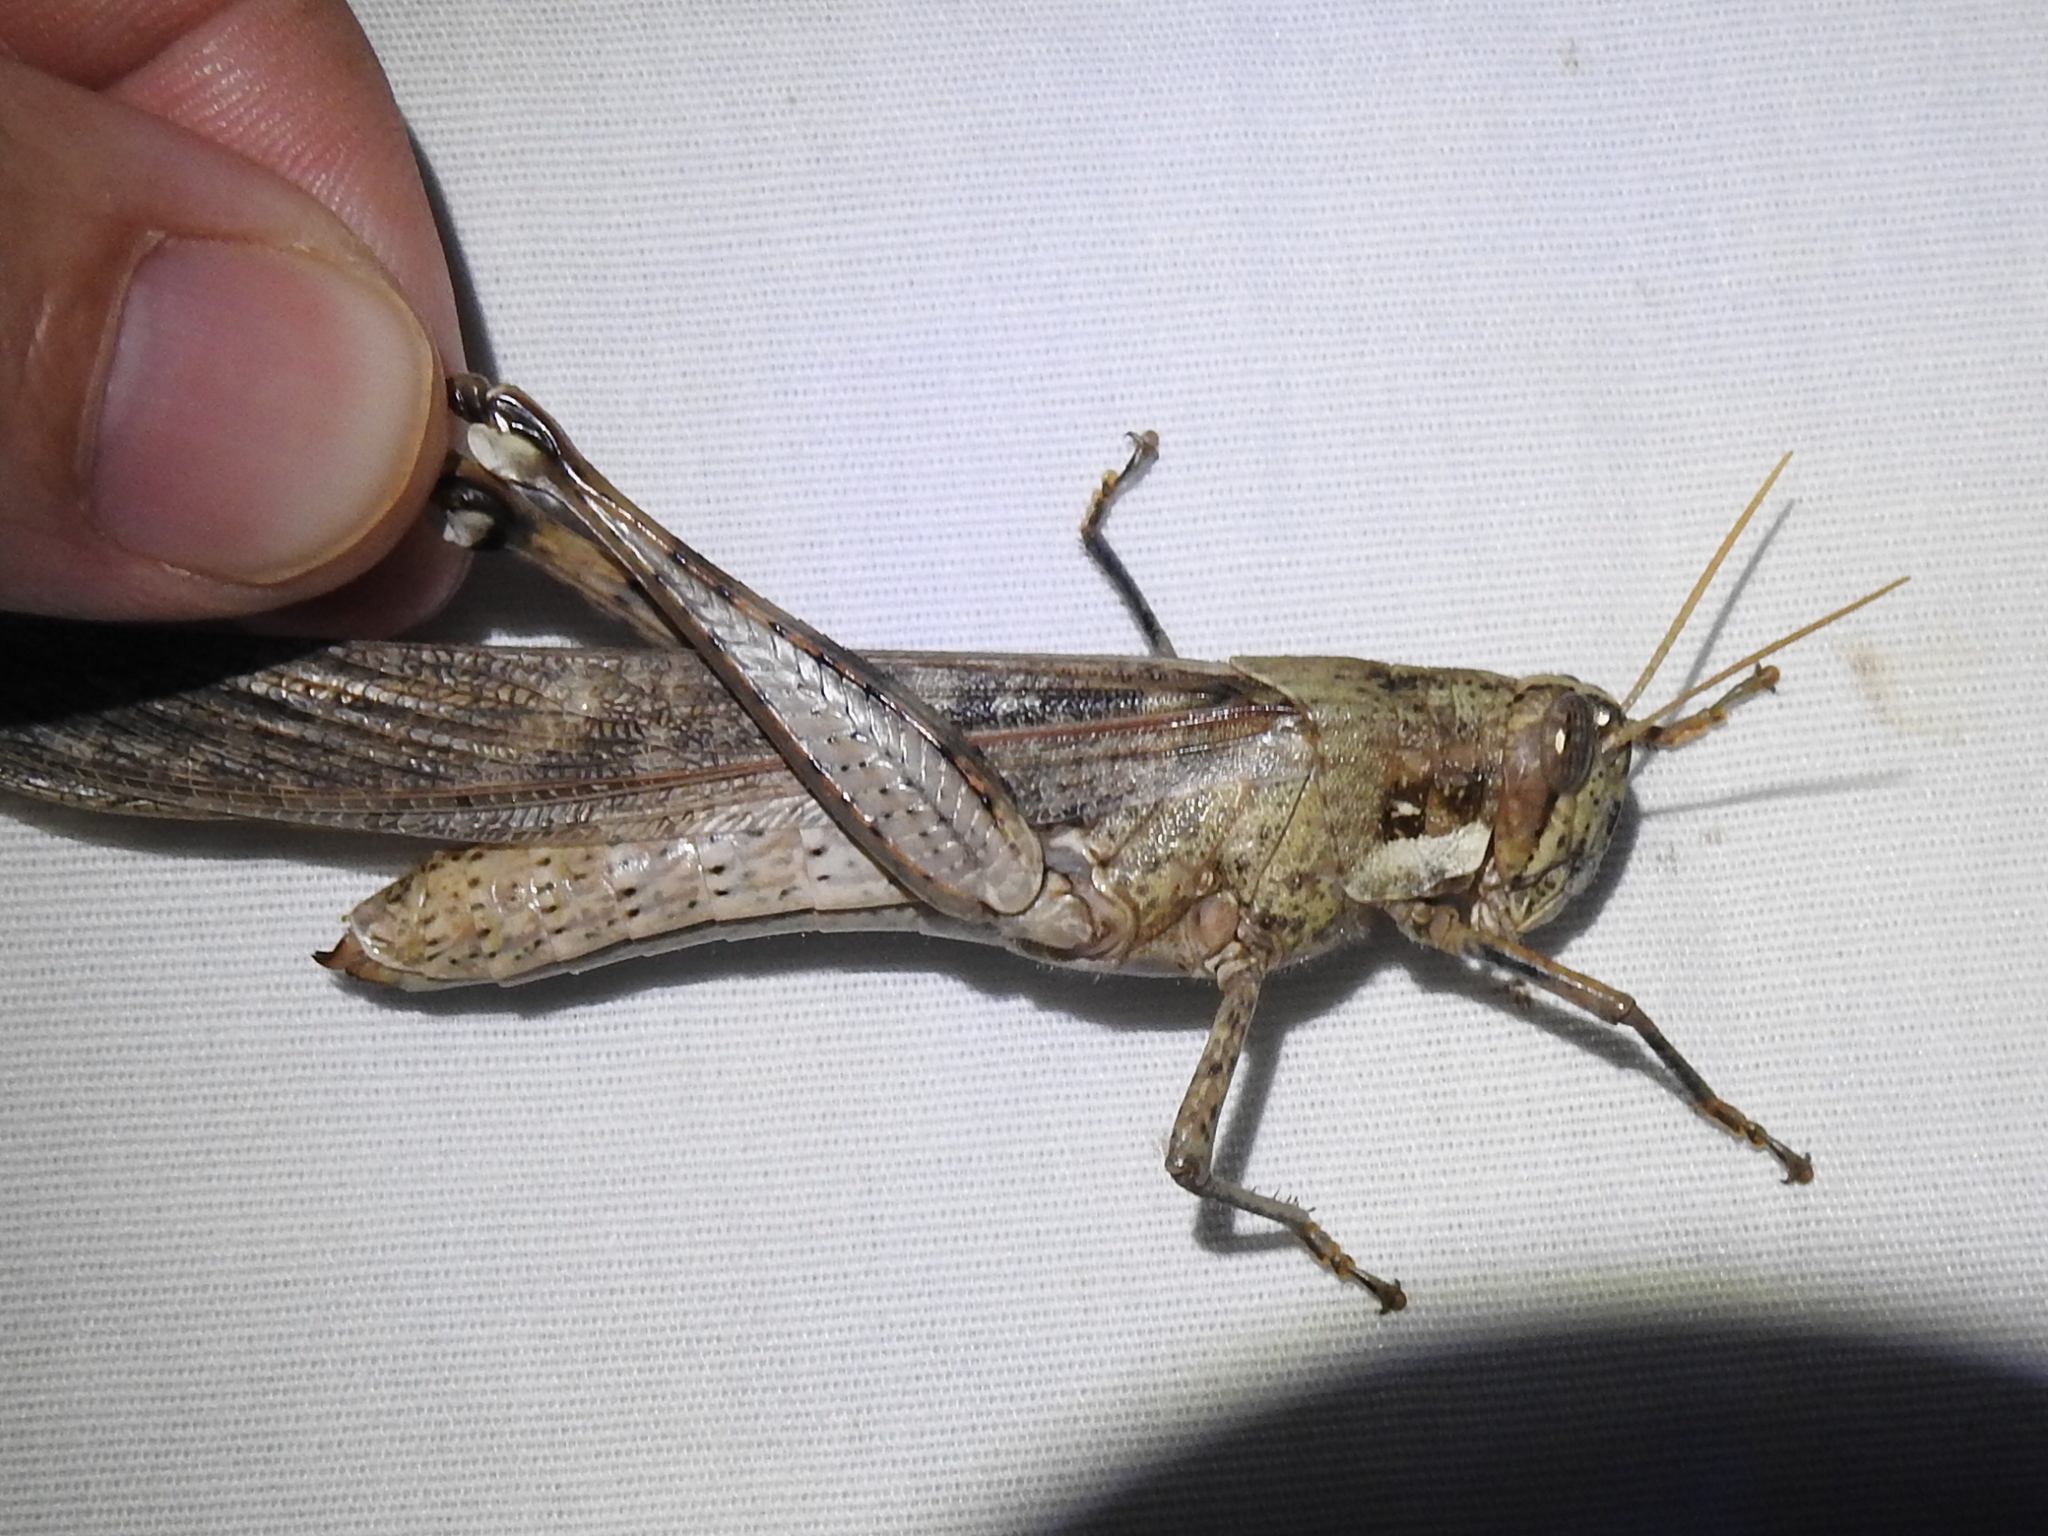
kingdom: Animalia
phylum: Arthropoda
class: Insecta
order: Orthoptera
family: Acrididae
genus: Schistocerca
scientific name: Schistocerca nitens
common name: Vagrant grasshopper
